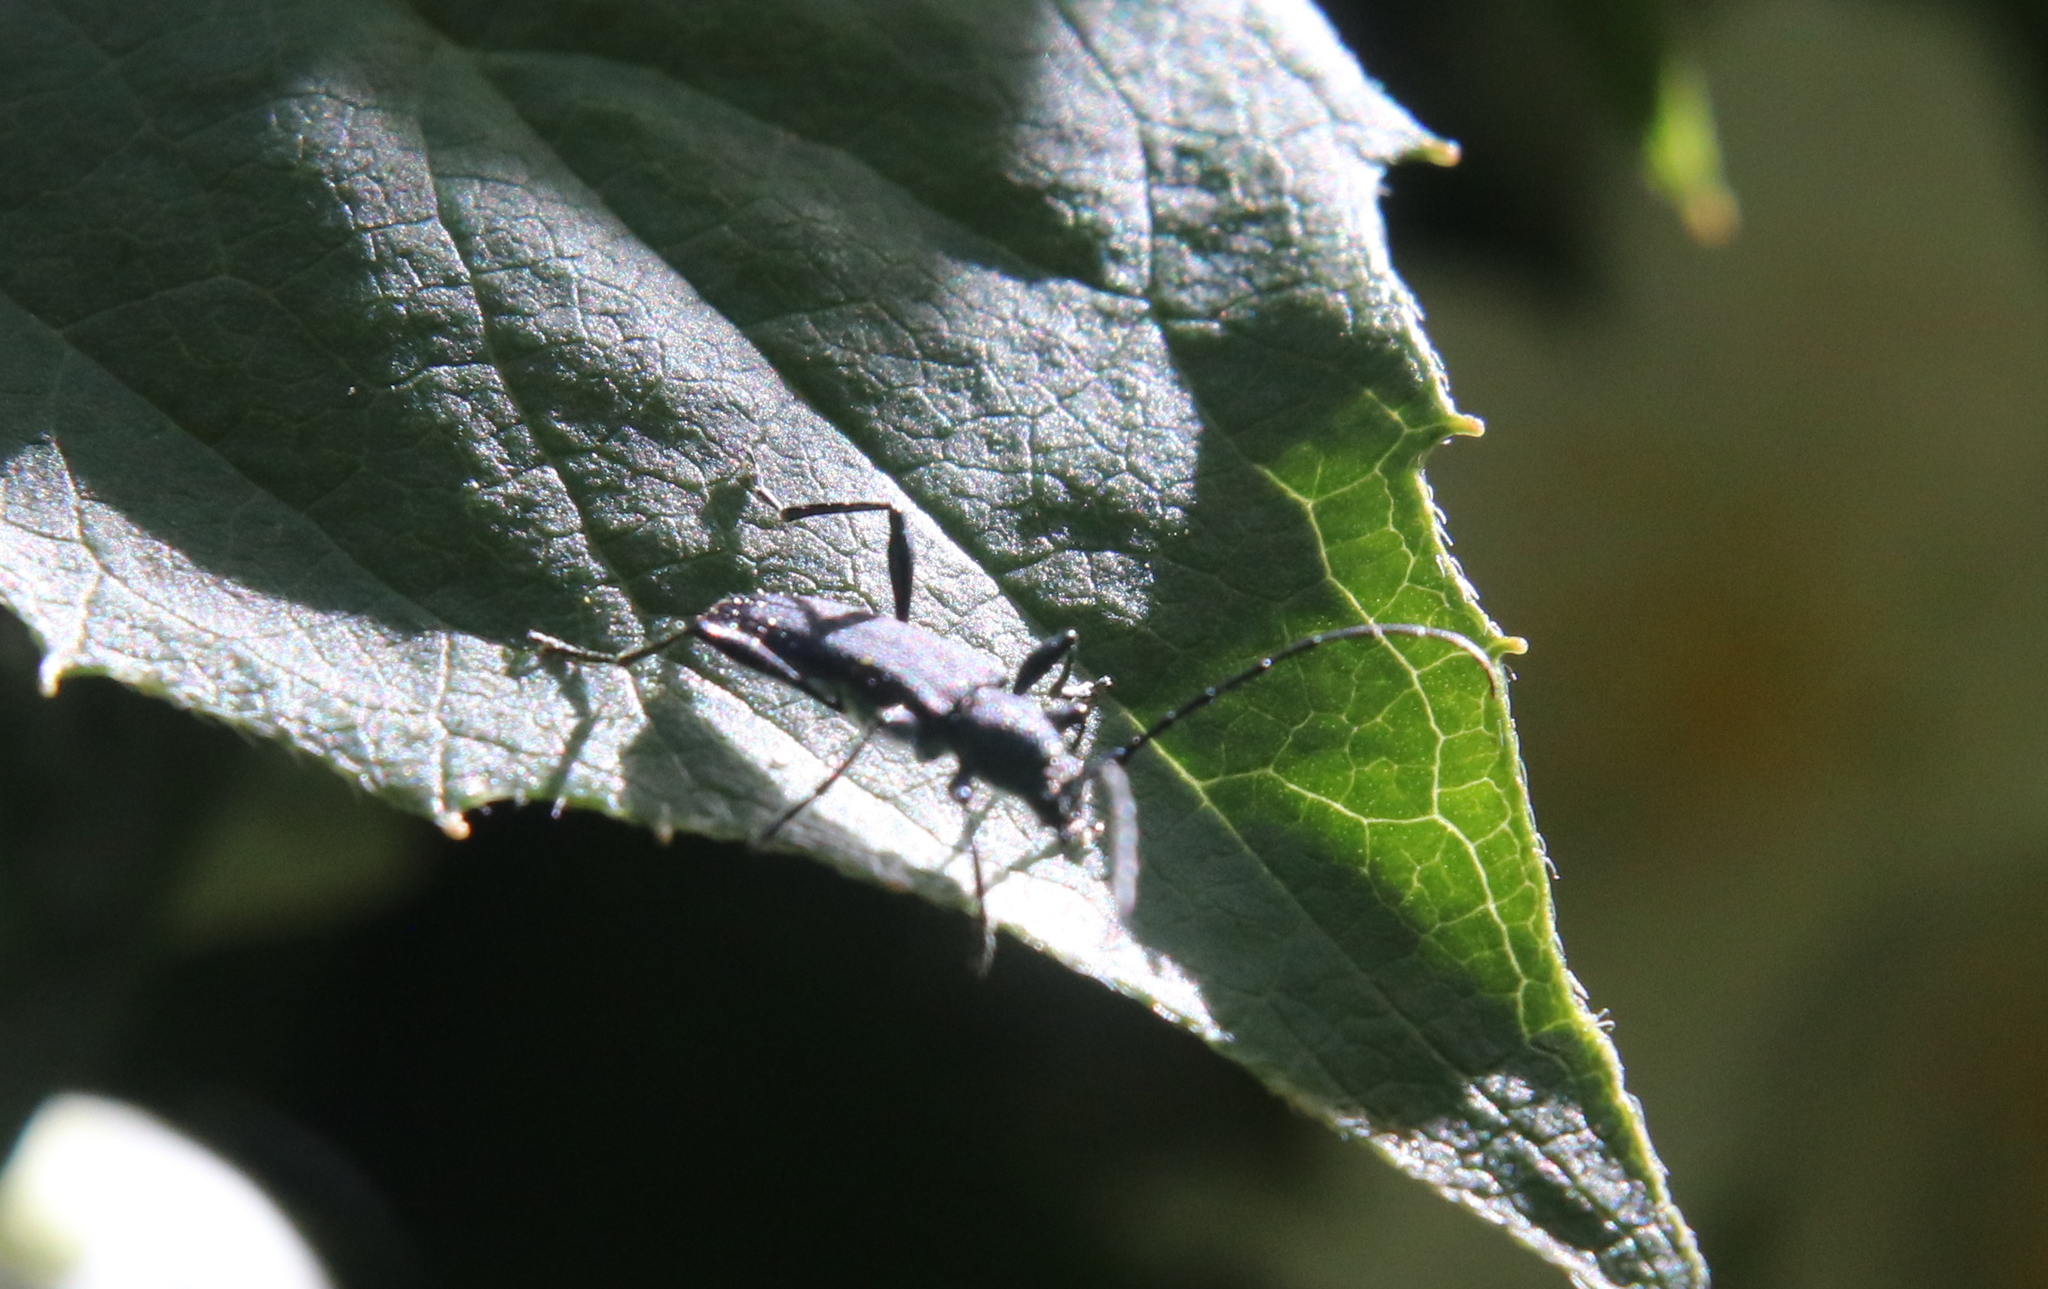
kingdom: Animalia
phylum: Arthropoda
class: Insecta
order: Coleoptera
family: Cerambycidae
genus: Eryphus
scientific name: Eryphus laetus
